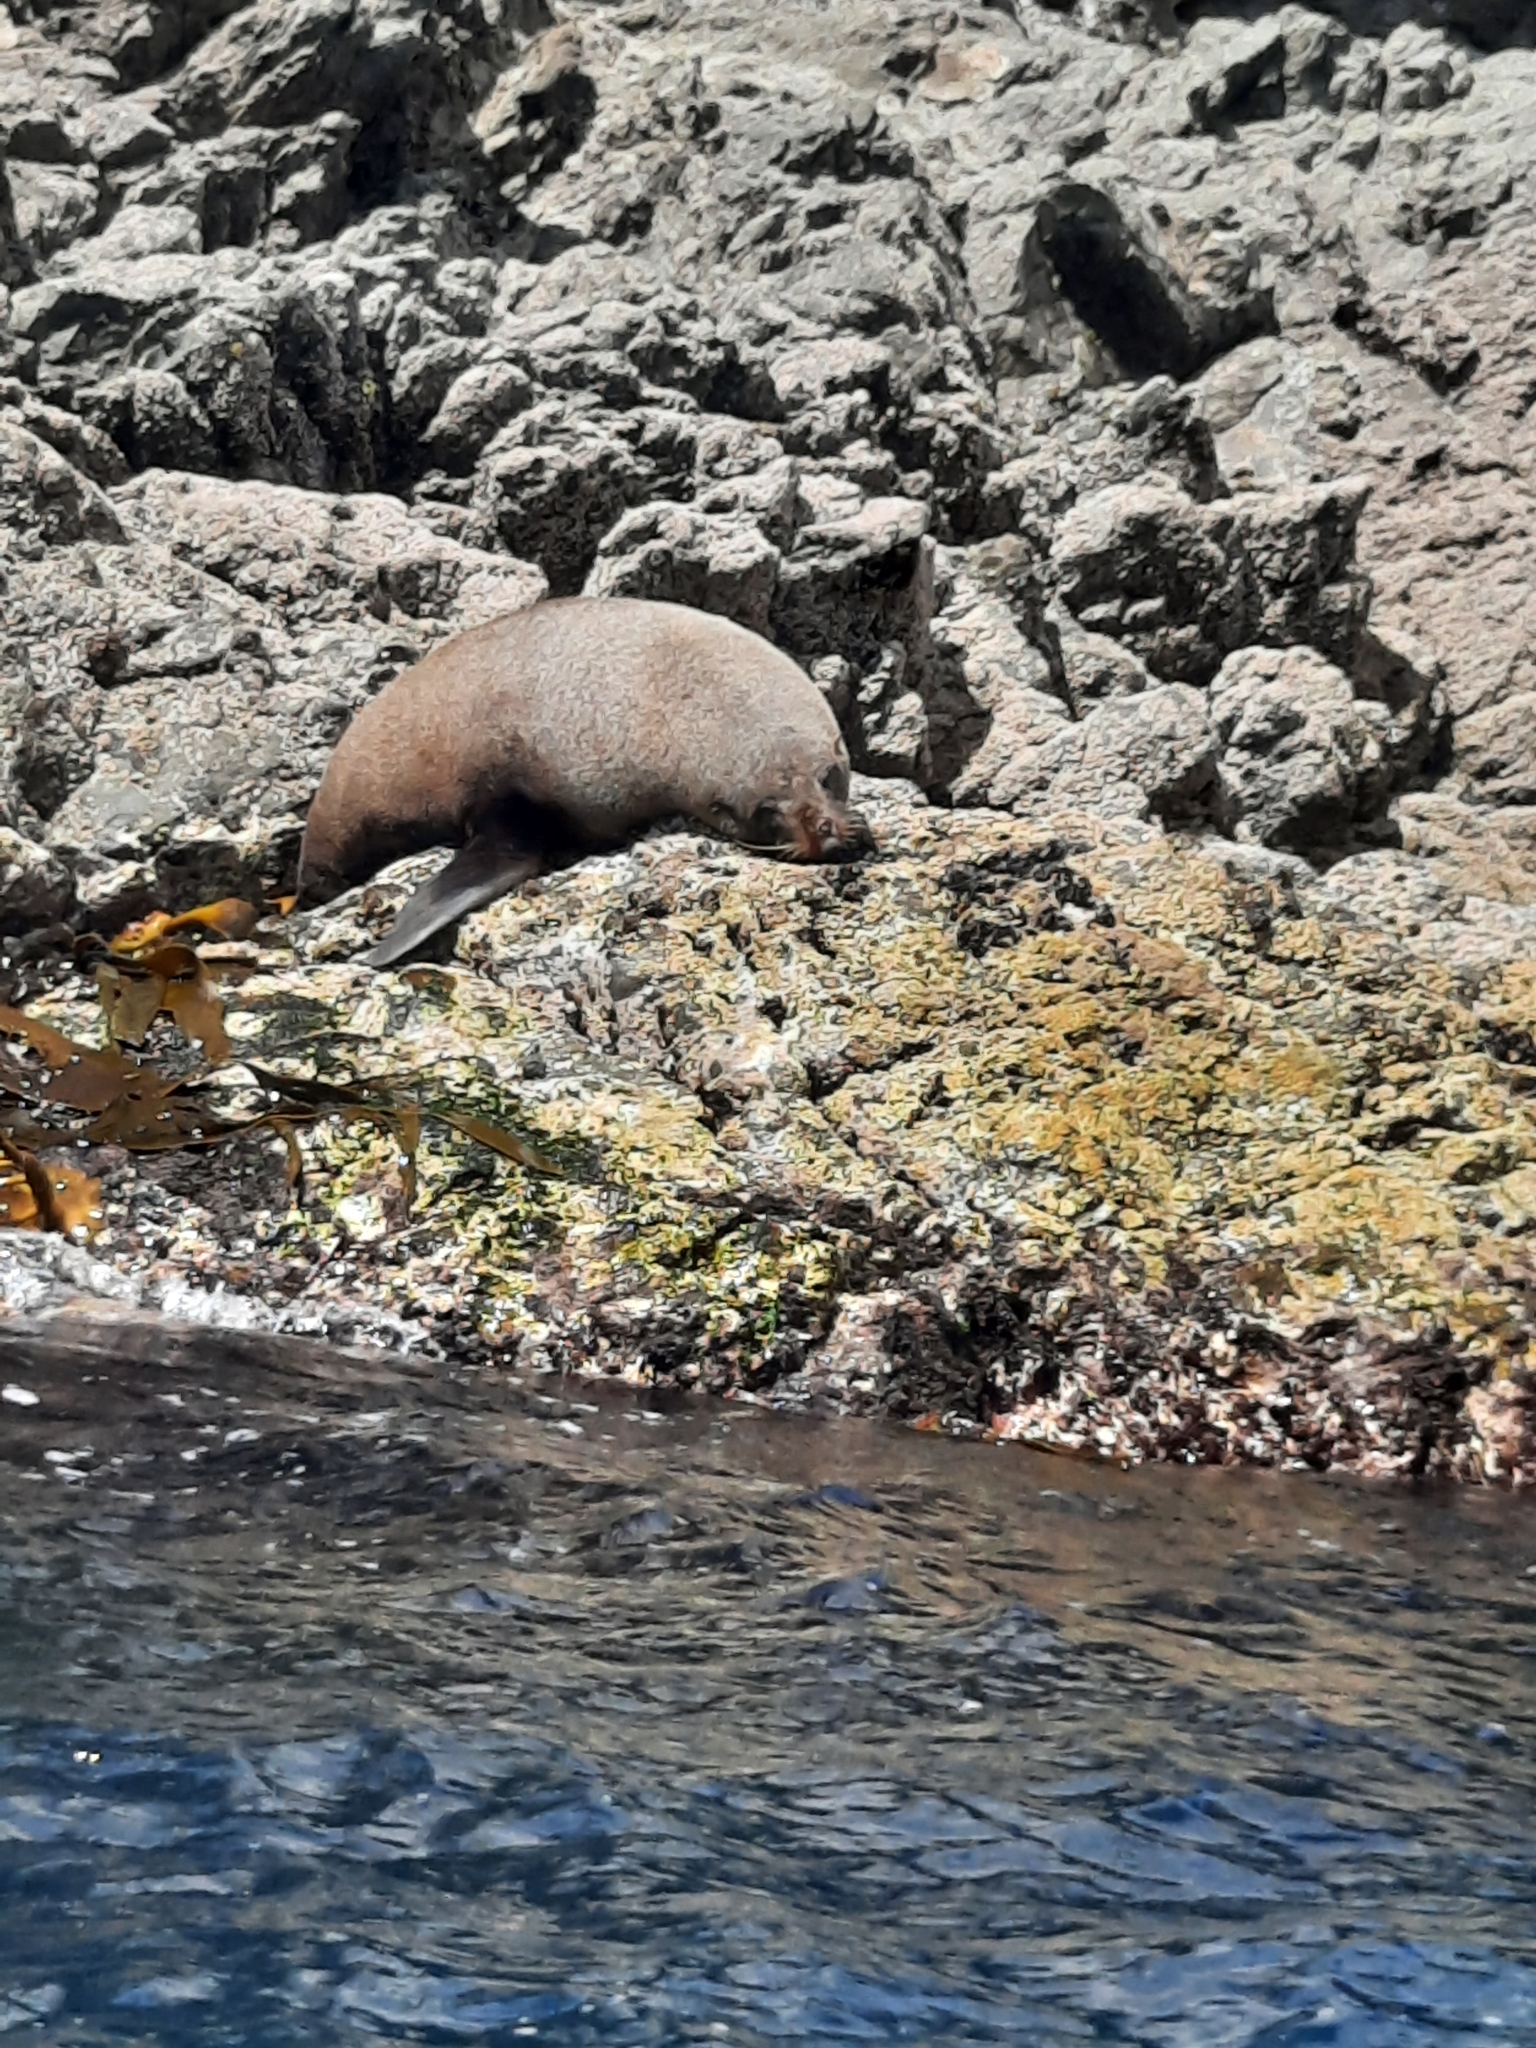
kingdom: Animalia
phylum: Chordata
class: Mammalia
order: Carnivora
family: Otariidae
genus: Arctocephalus
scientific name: Arctocephalus forsteri
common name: New zealand fur seal
